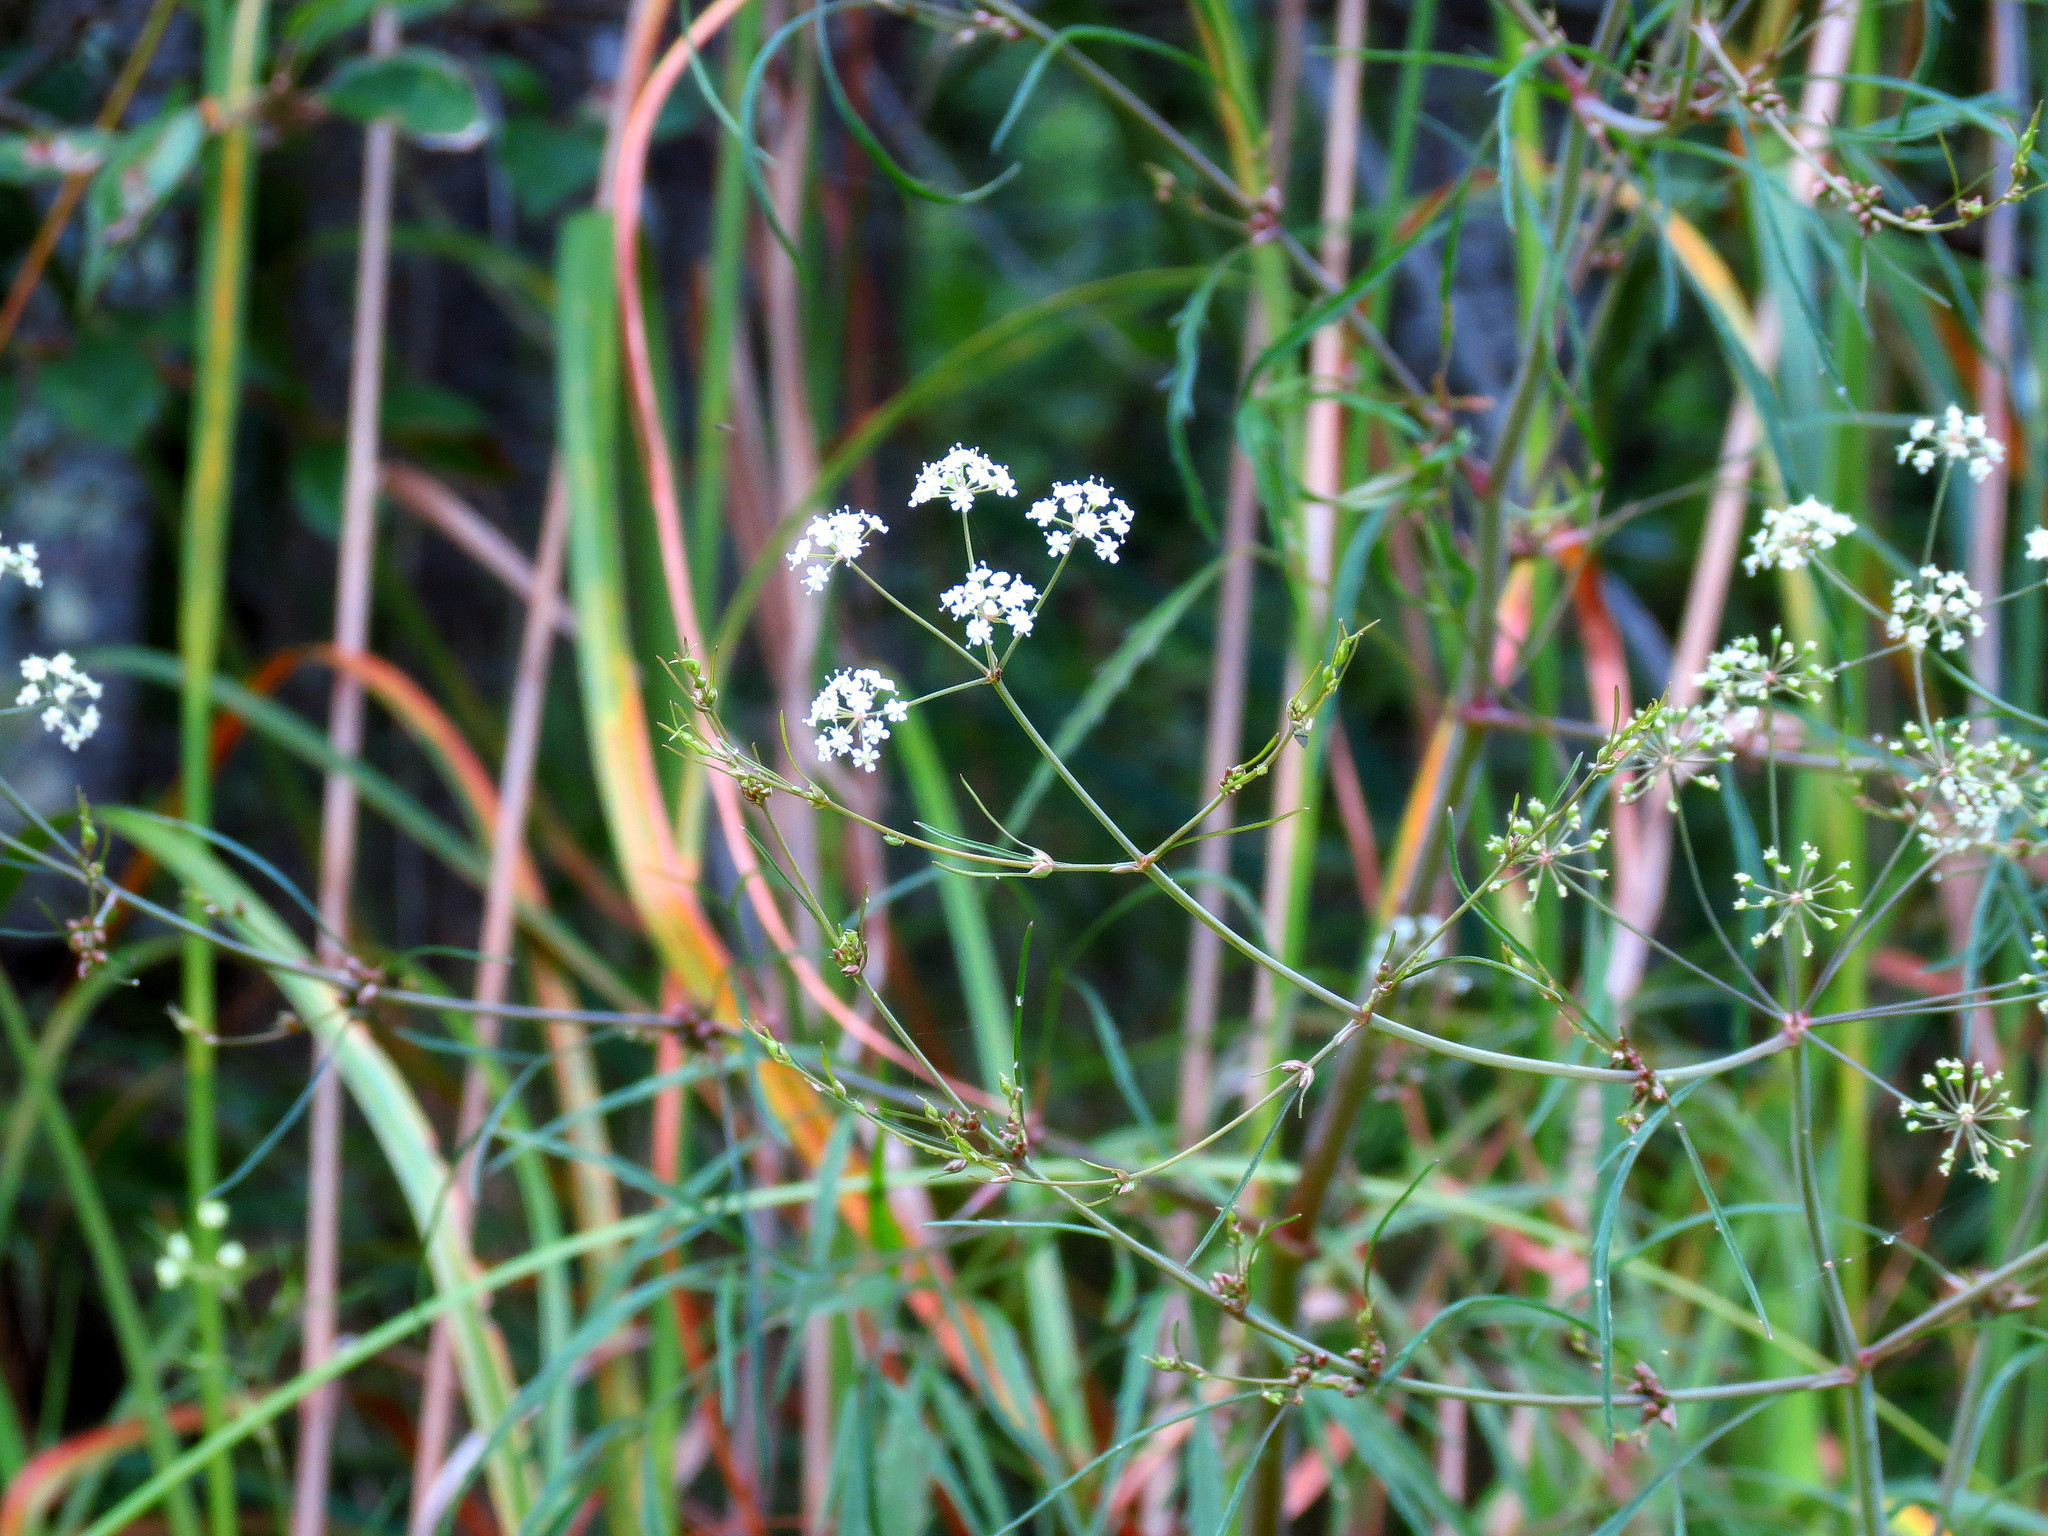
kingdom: Plantae
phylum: Tracheophyta
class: Magnoliopsida
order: Apiales
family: Apiaceae
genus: Cicuta
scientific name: Cicuta bulbifera
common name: Bulb-bearing water-hemlock
